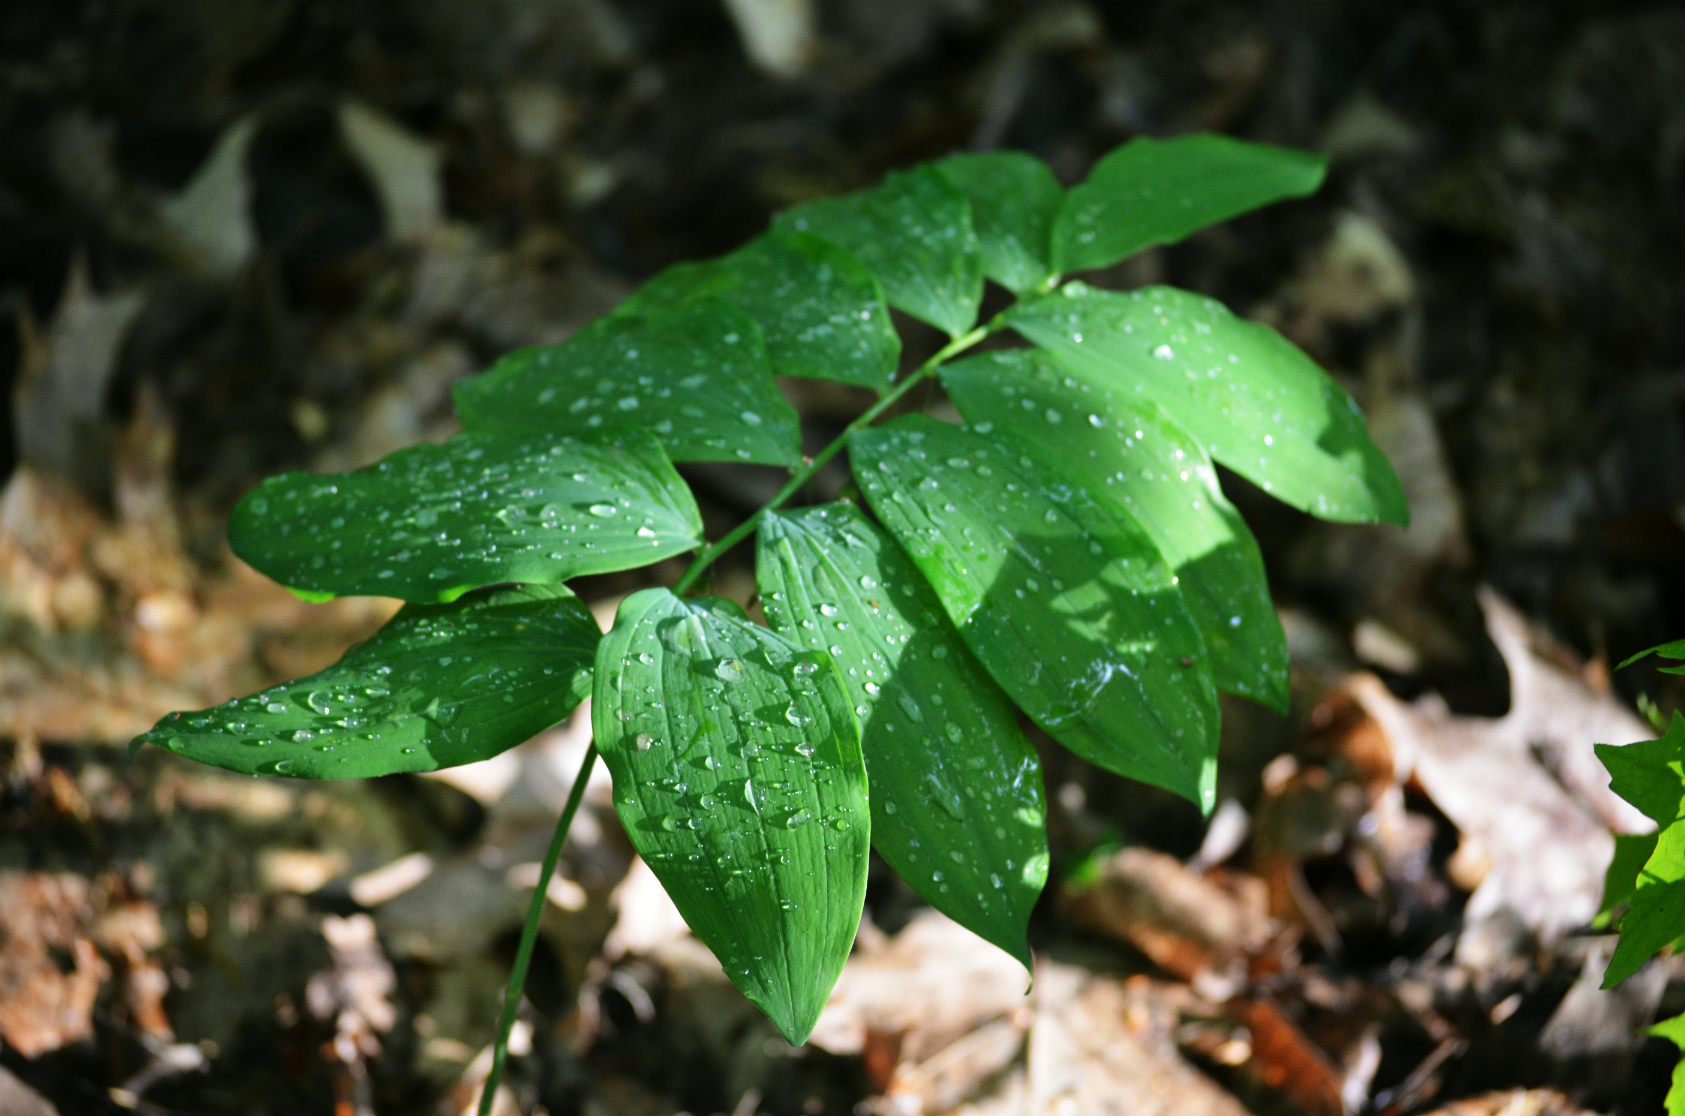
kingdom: Plantae
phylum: Tracheophyta
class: Liliopsida
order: Asparagales
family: Asparagaceae
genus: Polygonatum
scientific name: Polygonatum pubescens
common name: Downy solomon's seal
